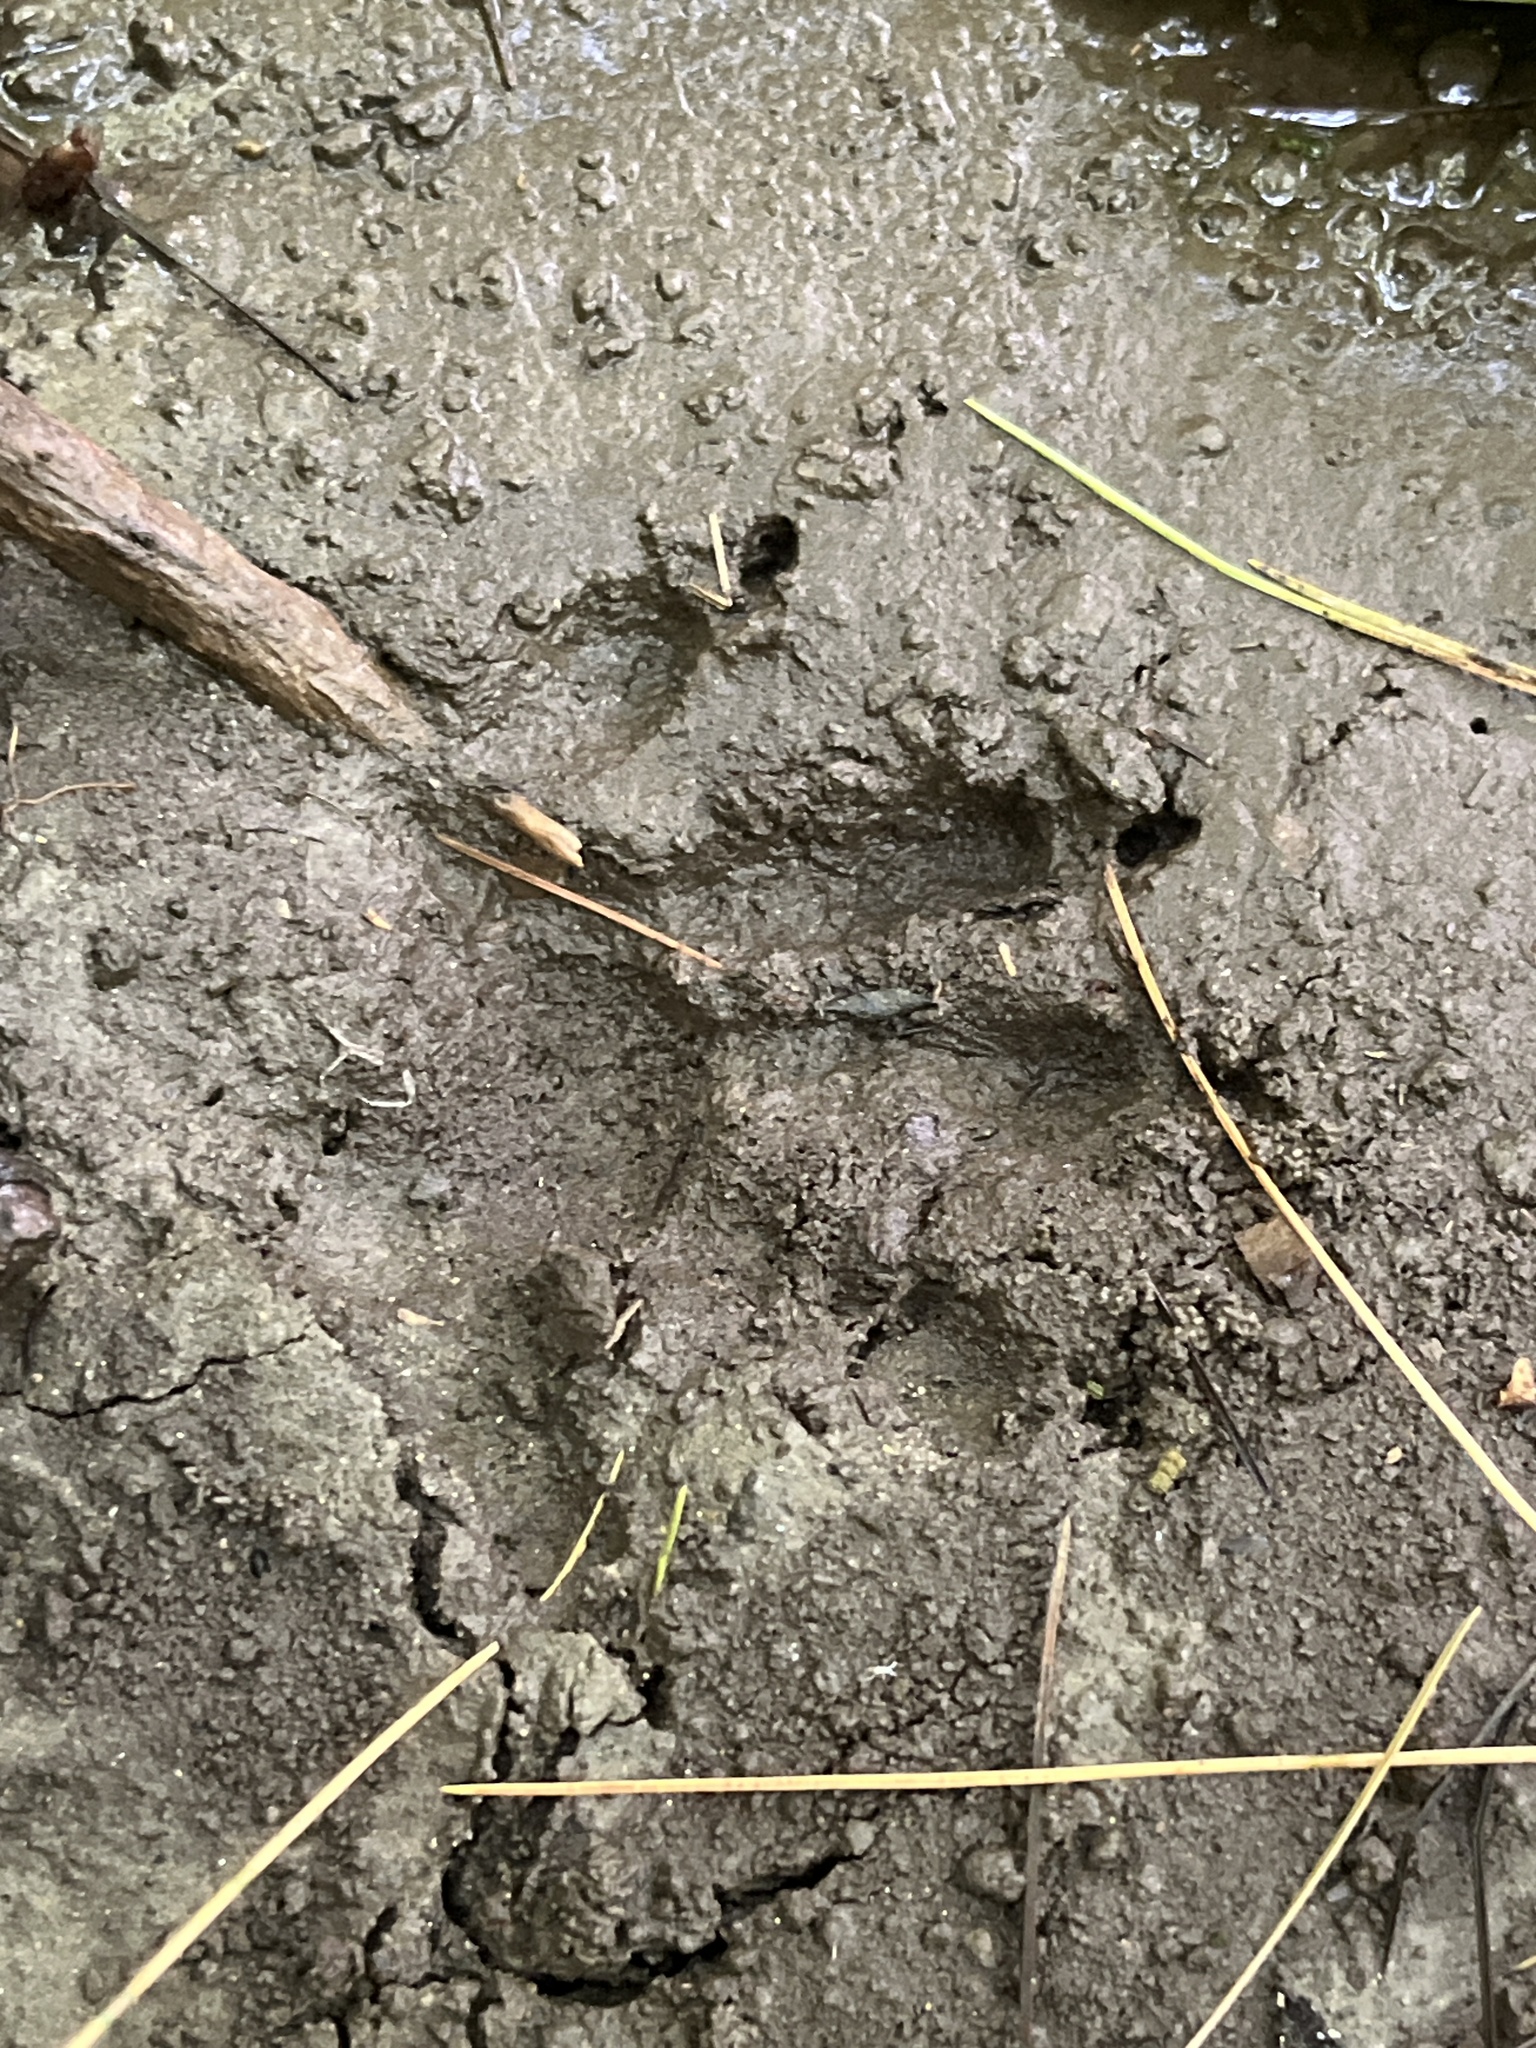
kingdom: Animalia
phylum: Chordata
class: Mammalia
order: Carnivora
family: Procyonidae
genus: Procyon
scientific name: Procyon lotor
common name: Raccoon
